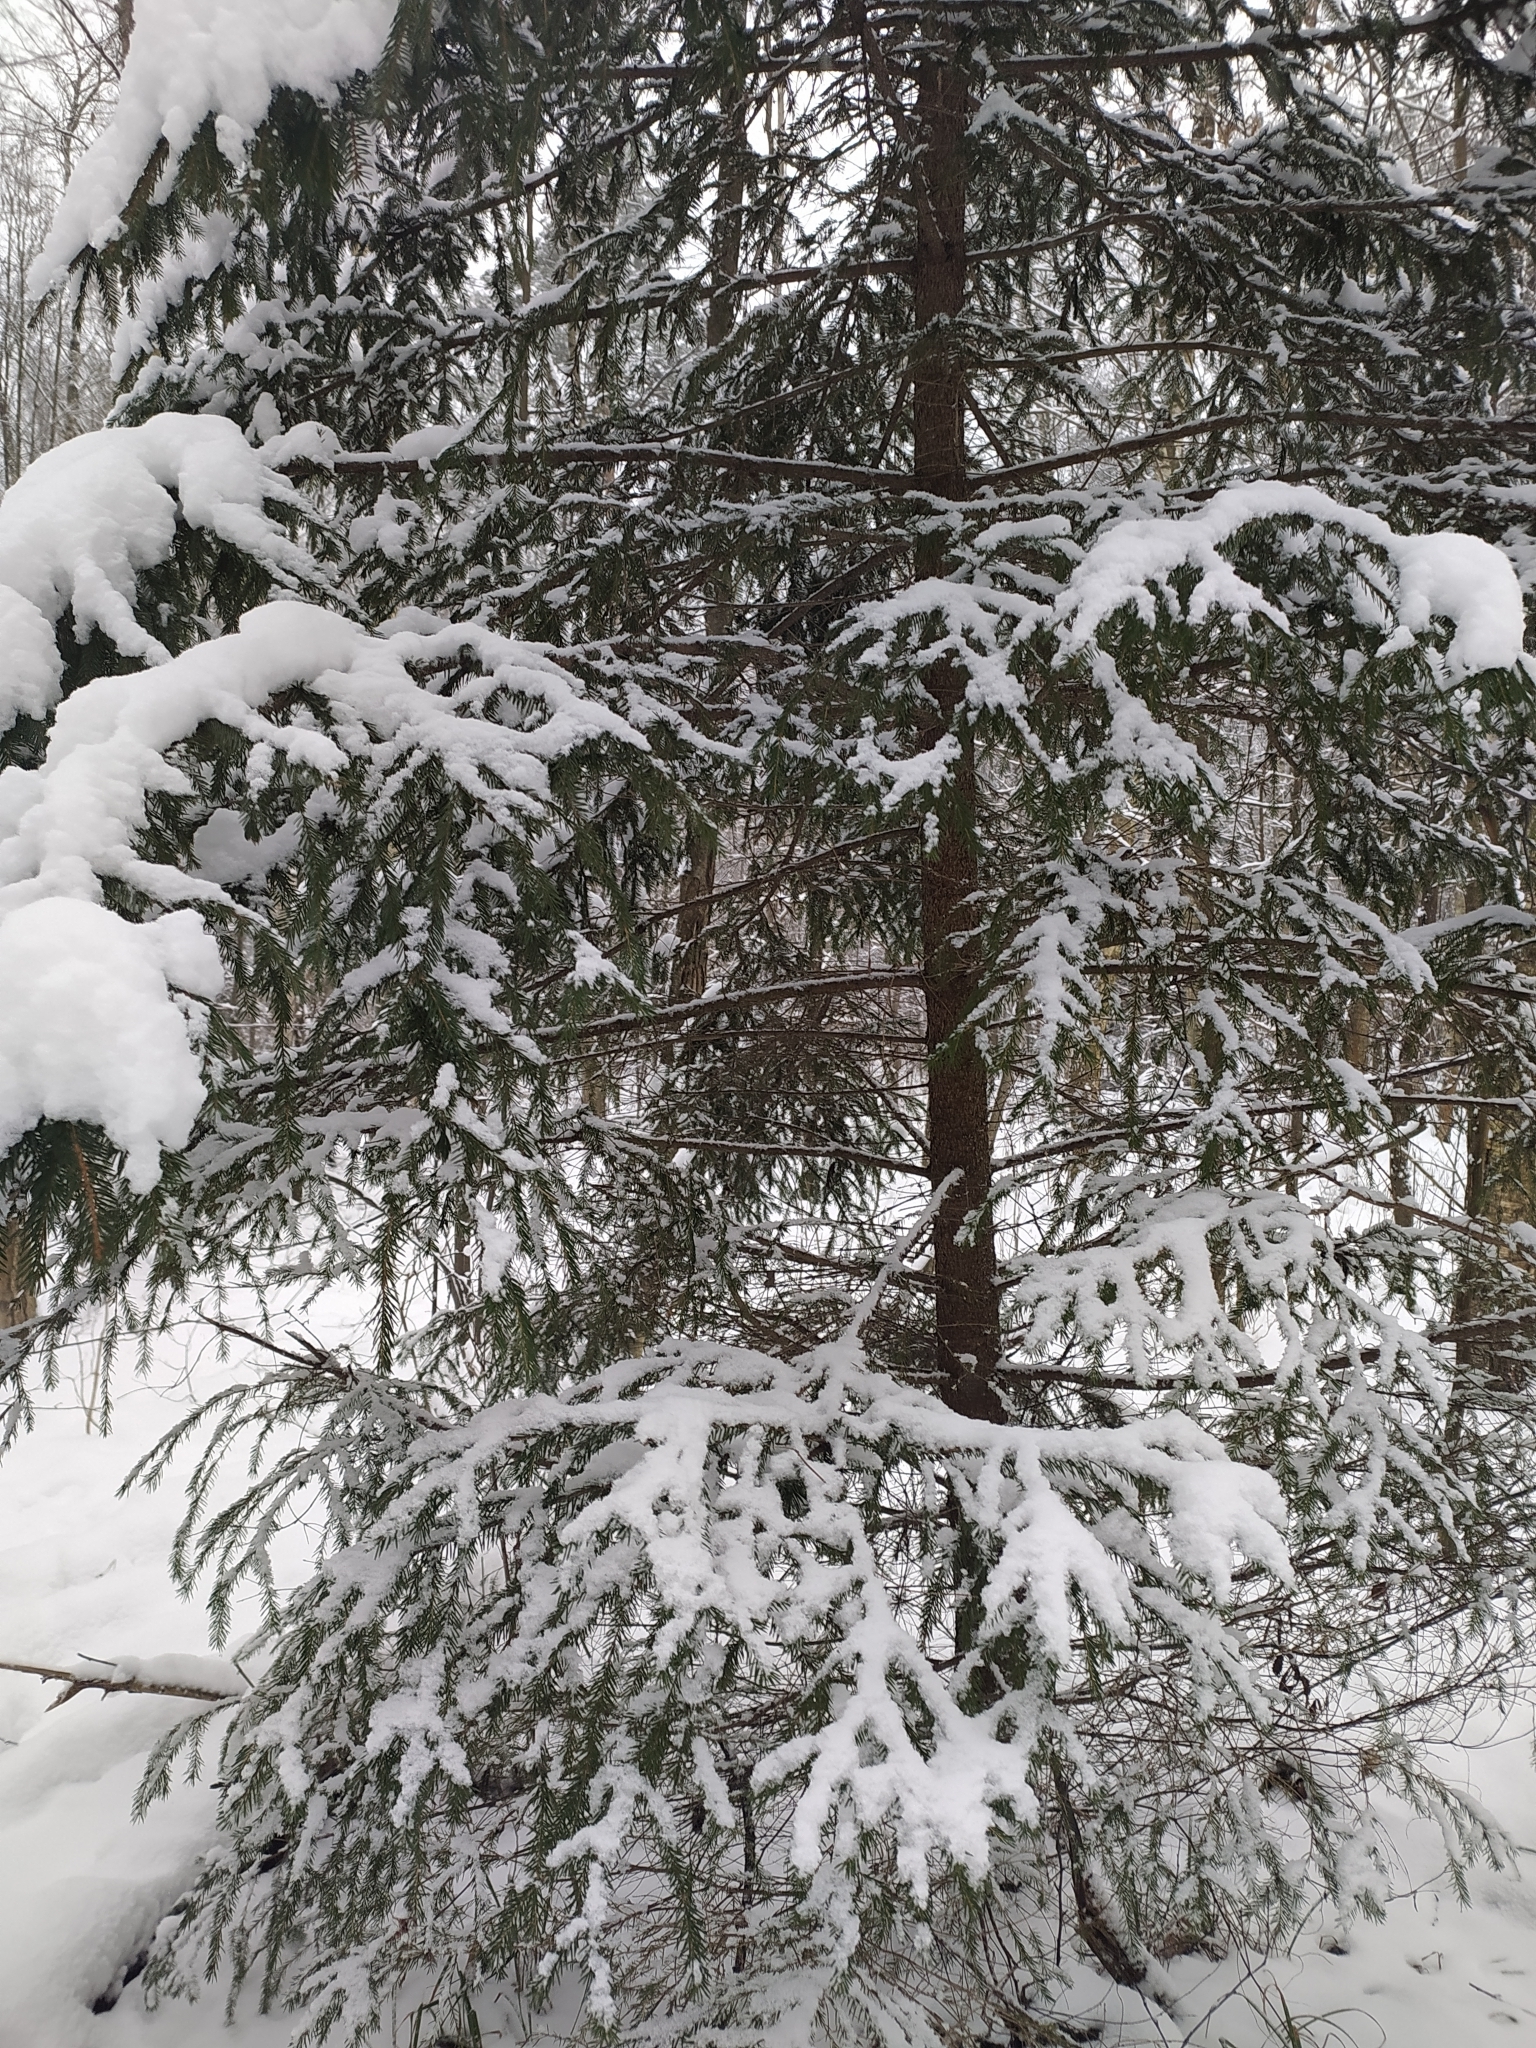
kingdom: Plantae
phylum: Tracheophyta
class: Pinopsida
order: Pinales
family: Pinaceae
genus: Picea
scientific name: Picea abies
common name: Norway spruce
